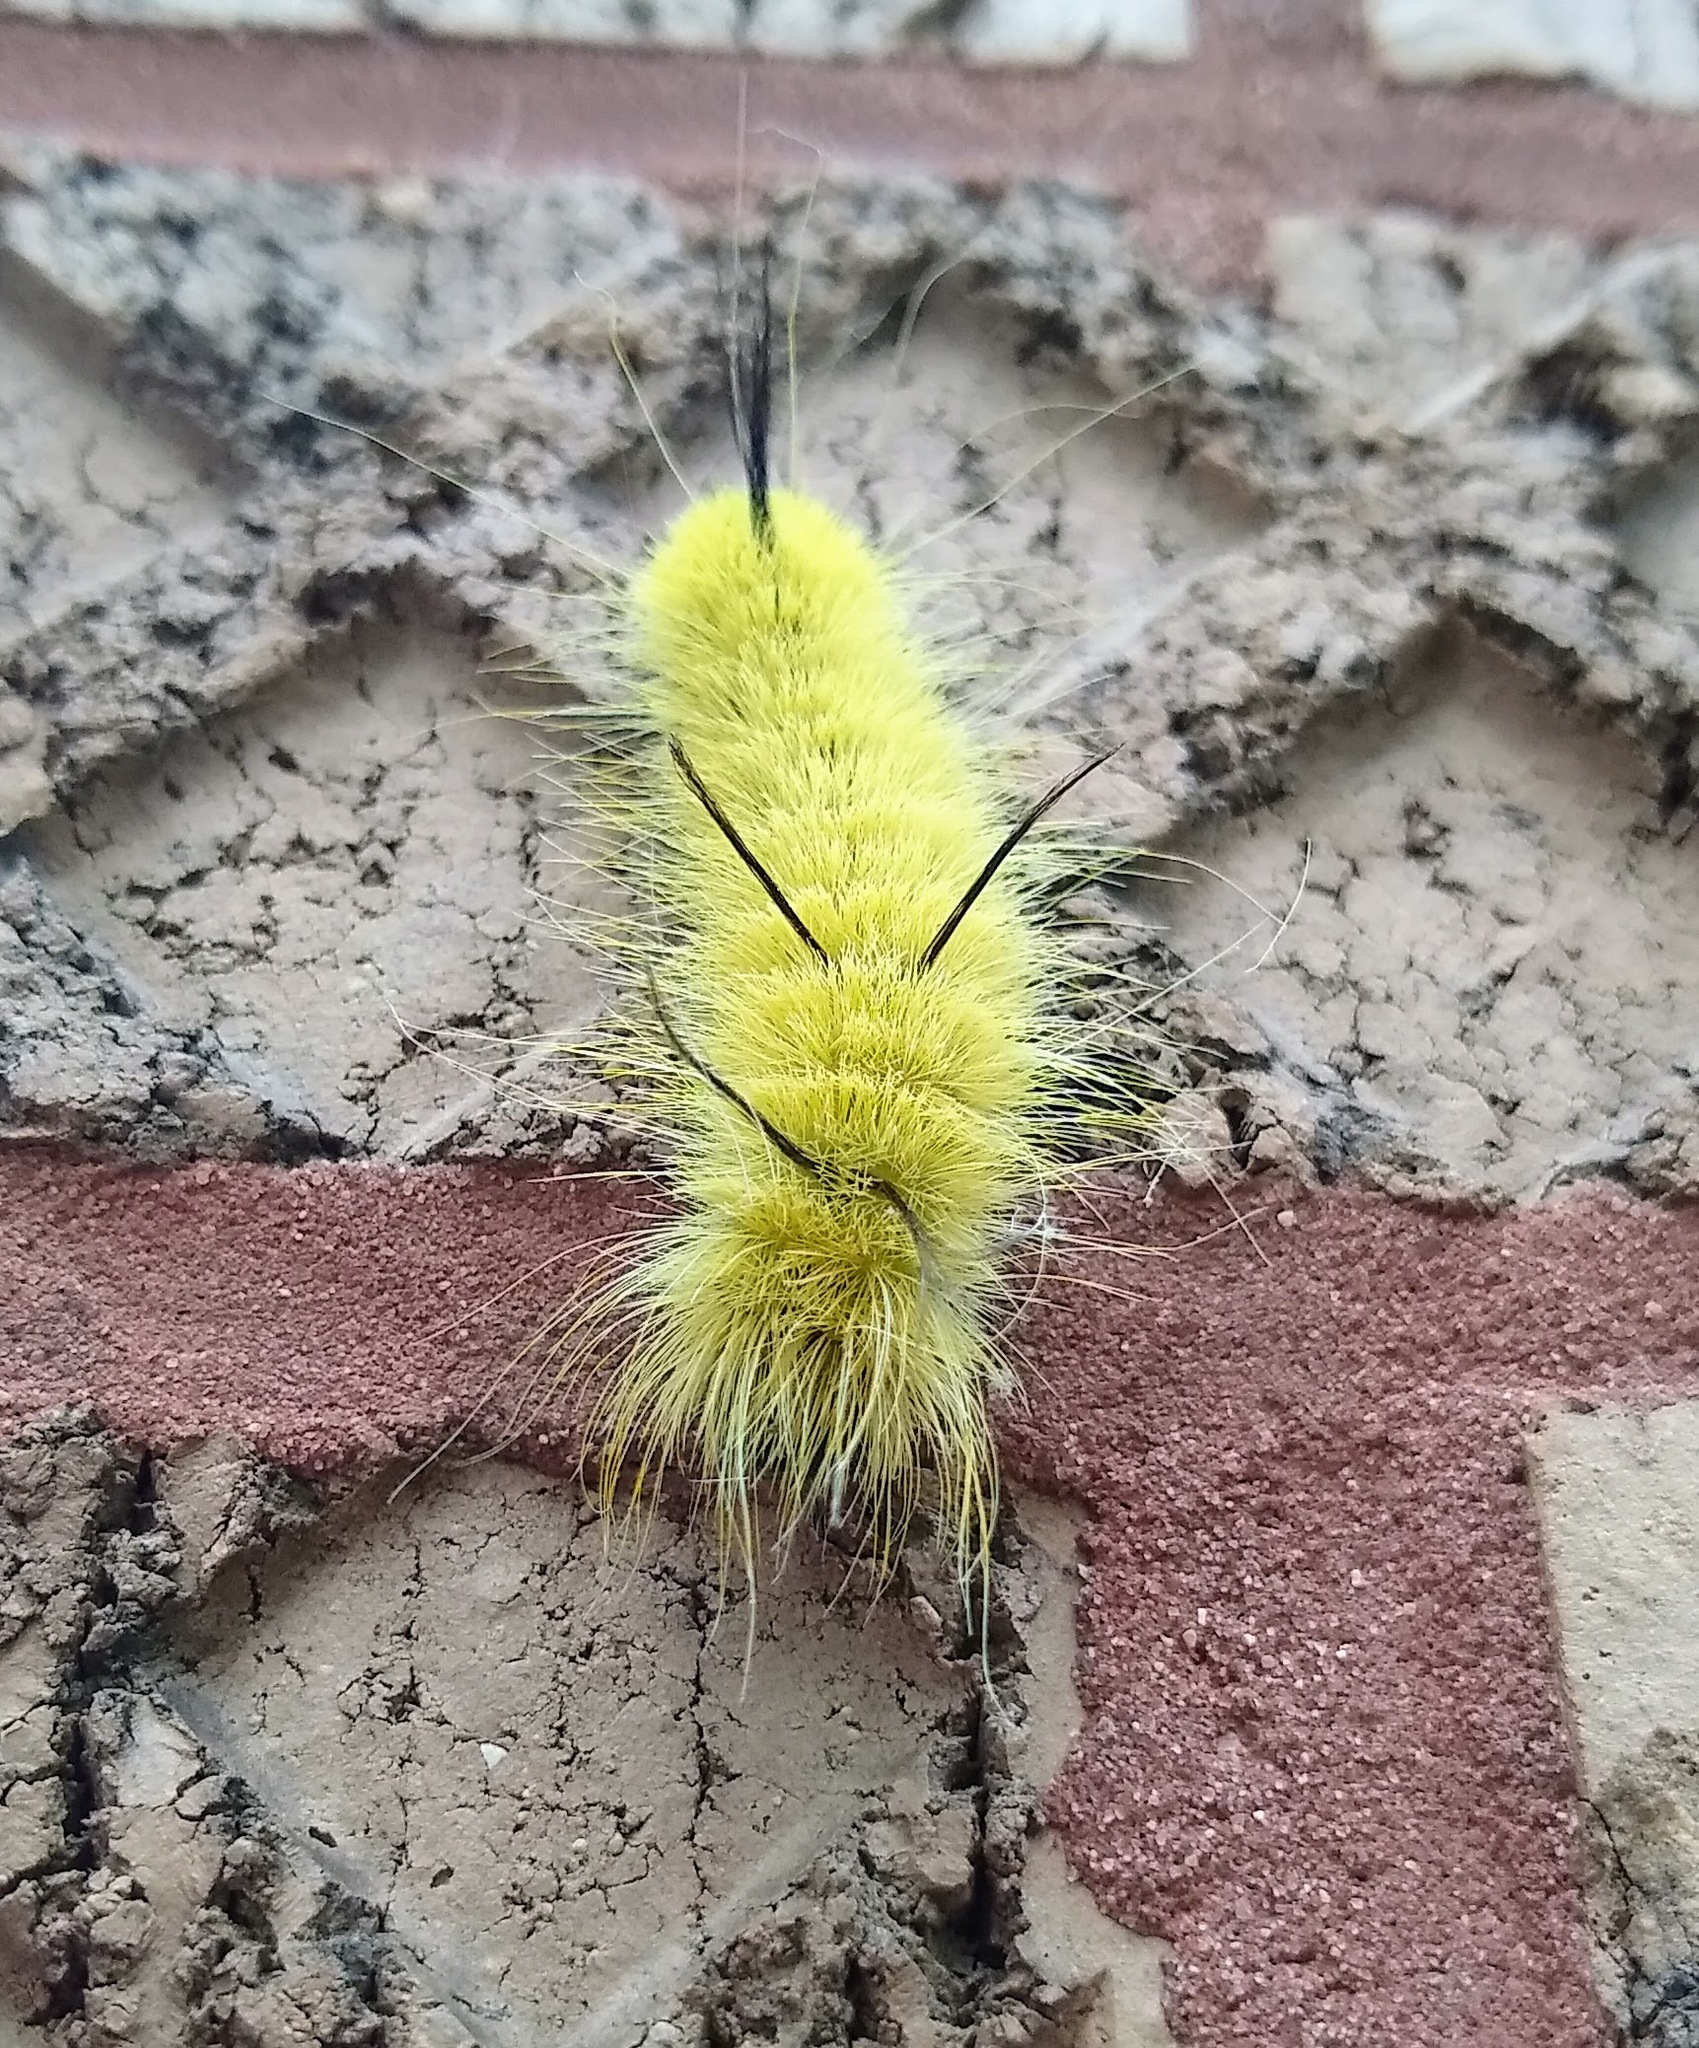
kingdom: Animalia
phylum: Arthropoda
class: Insecta
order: Lepidoptera
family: Noctuidae
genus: Acronicta
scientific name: Acronicta americana
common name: American dagger
